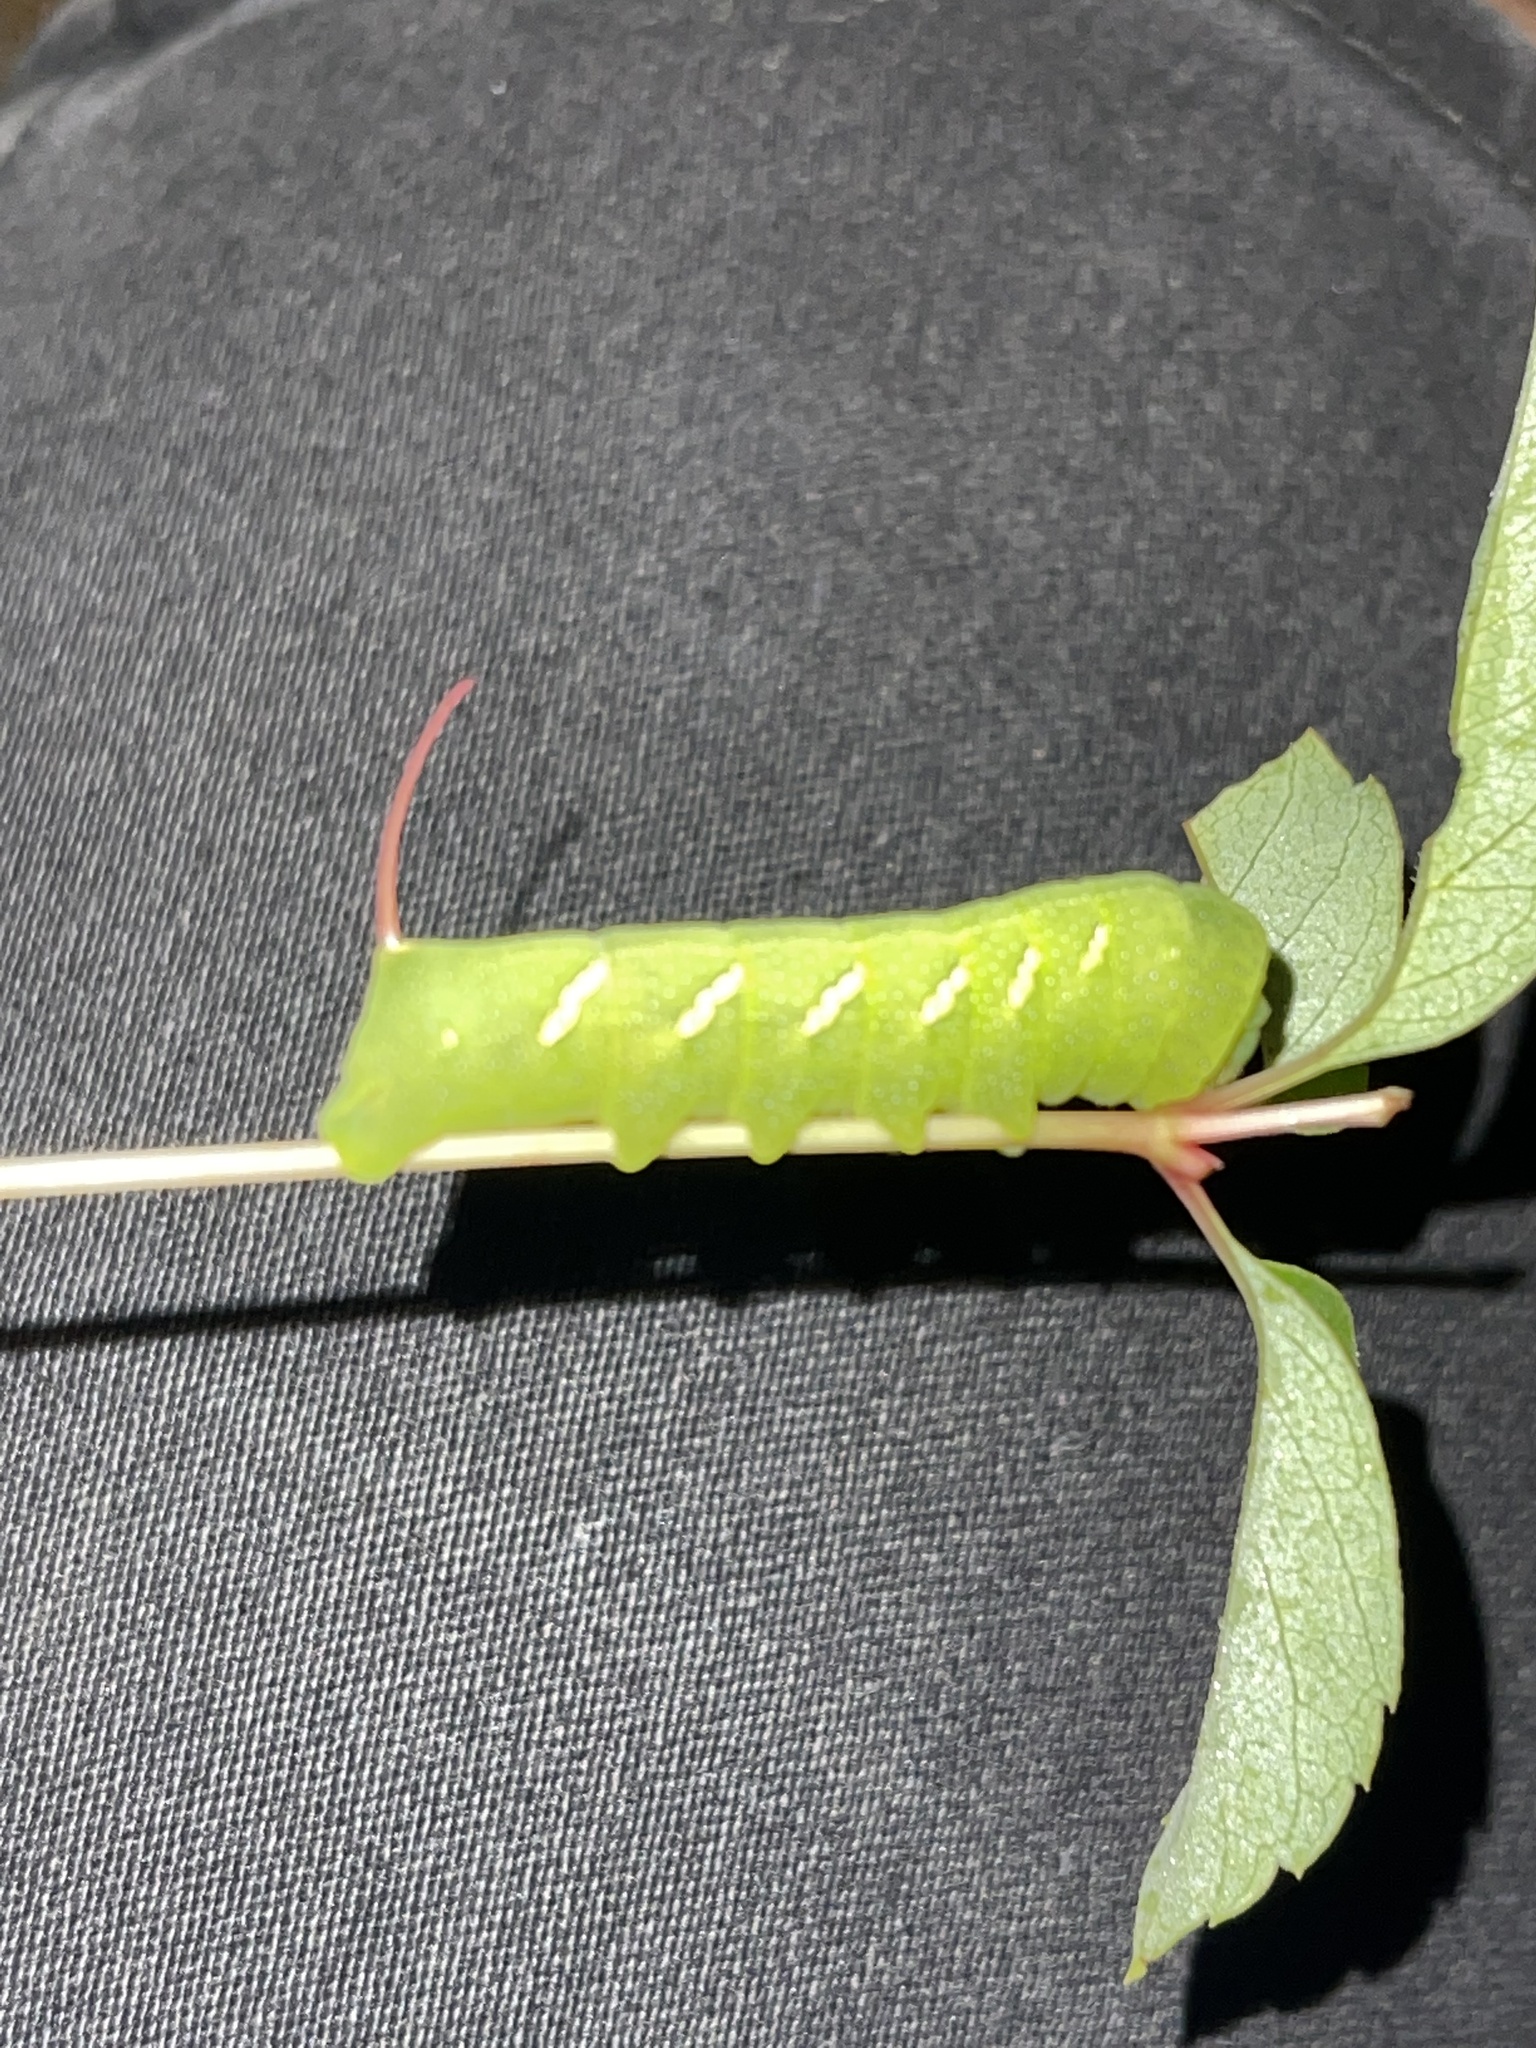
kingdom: Animalia
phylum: Arthropoda
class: Insecta
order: Lepidoptera
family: Sphingidae
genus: Eumorpha
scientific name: Eumorpha achemon
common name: Achemon sphinx
